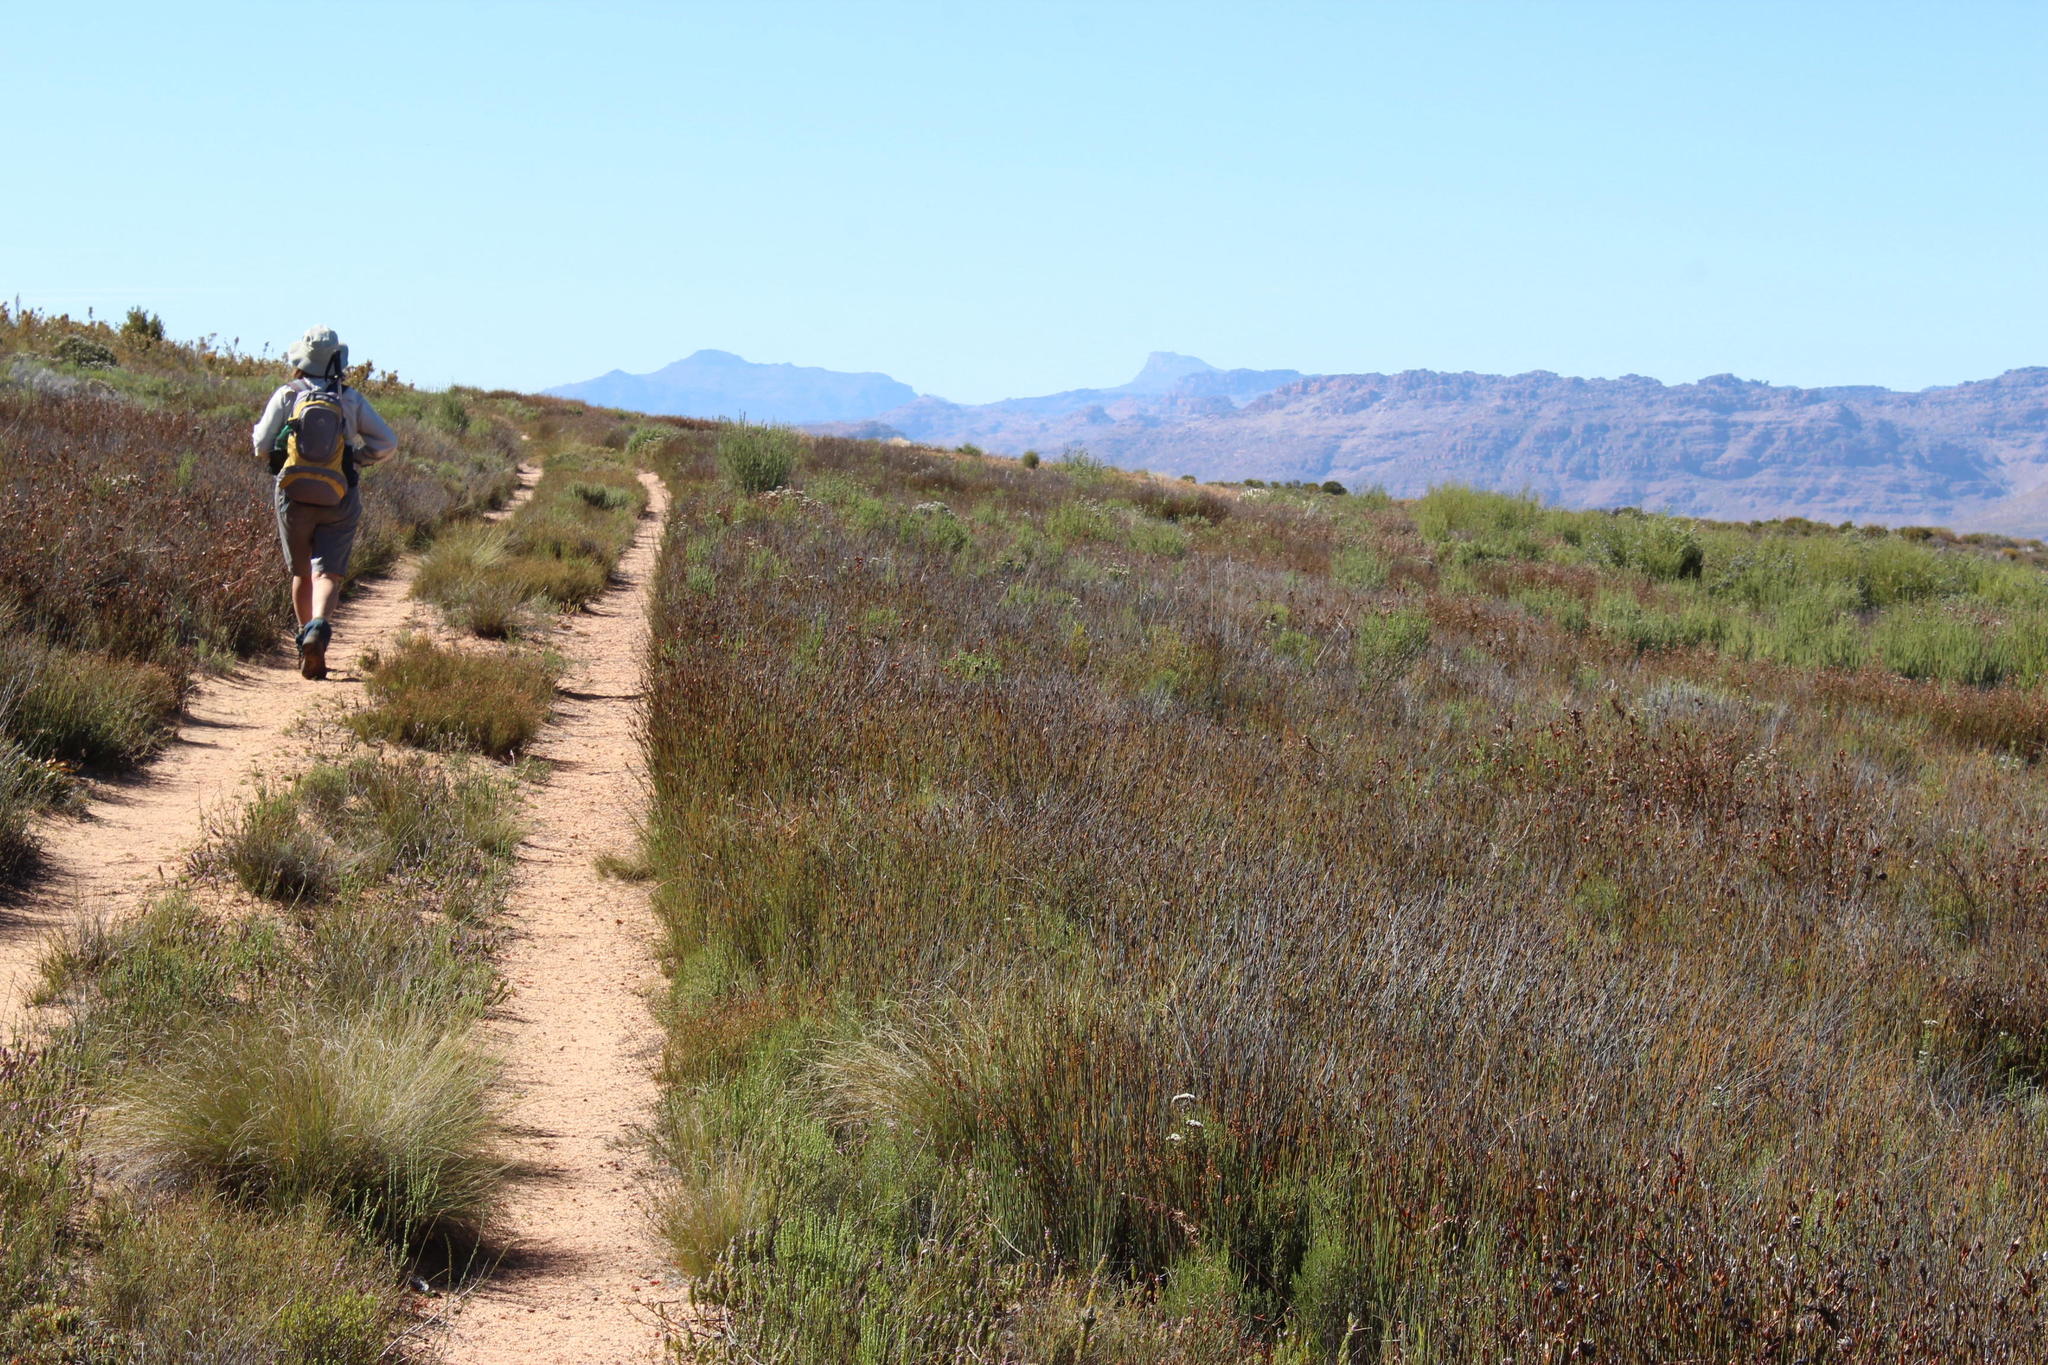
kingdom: Plantae
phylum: Tracheophyta
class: Liliopsida
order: Poales
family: Restionaceae
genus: Willdenowia
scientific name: Willdenowia glomerata
